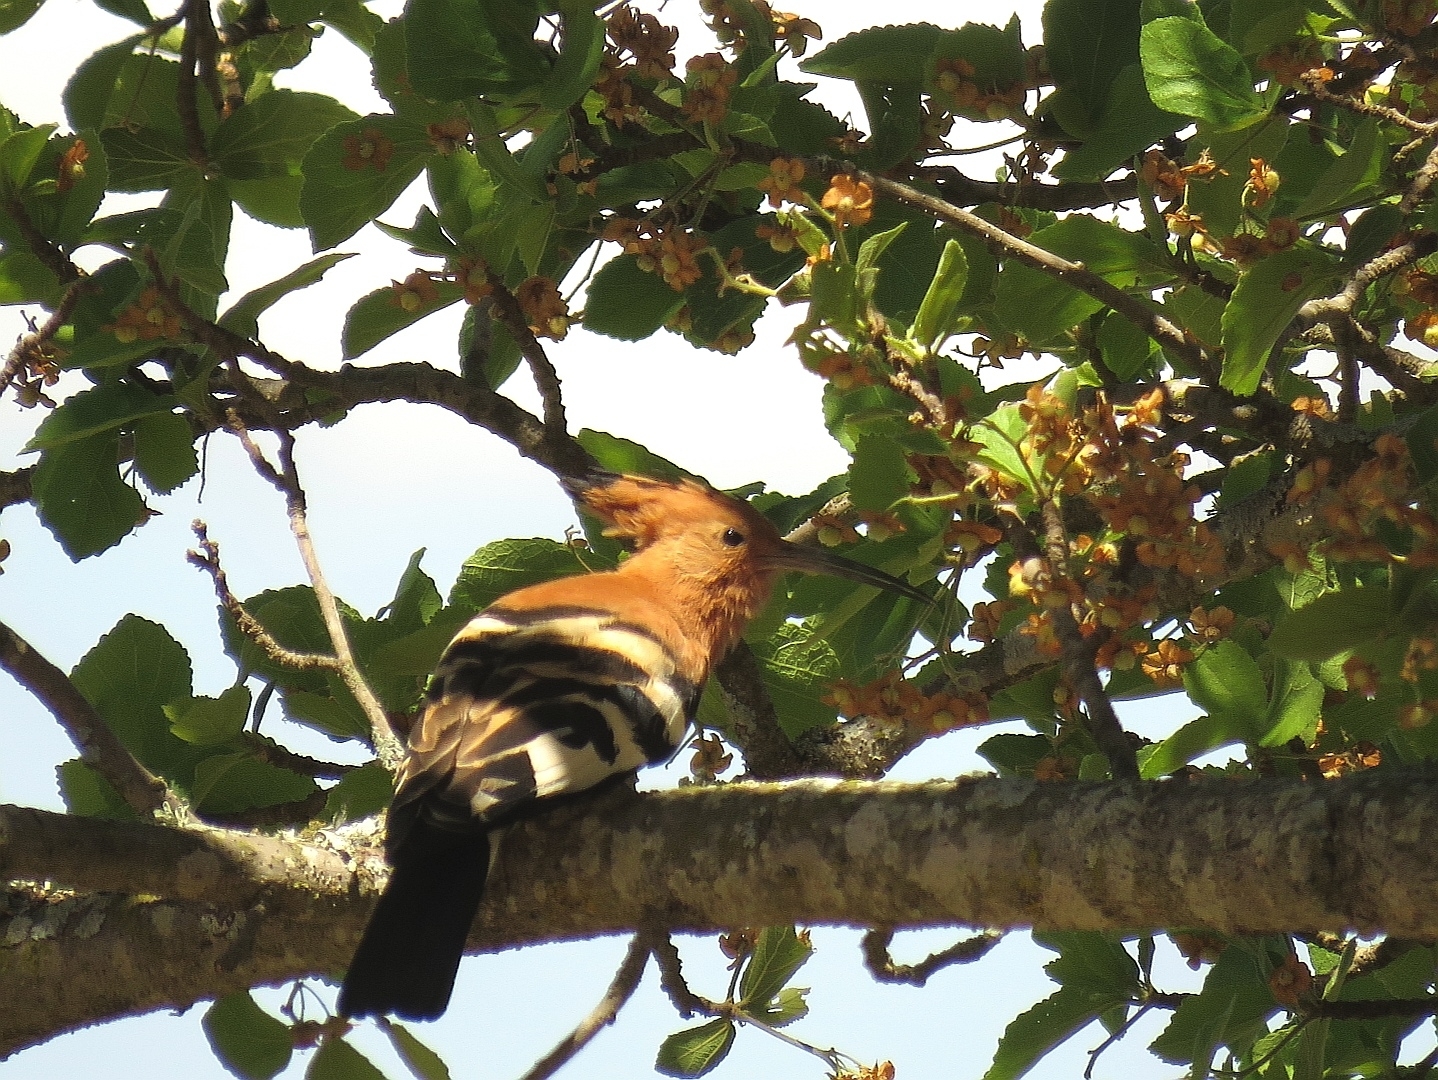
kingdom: Animalia
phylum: Chordata
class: Aves
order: Bucerotiformes
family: Upupidae
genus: Upupa
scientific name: Upupa africana
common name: African hoopoe
